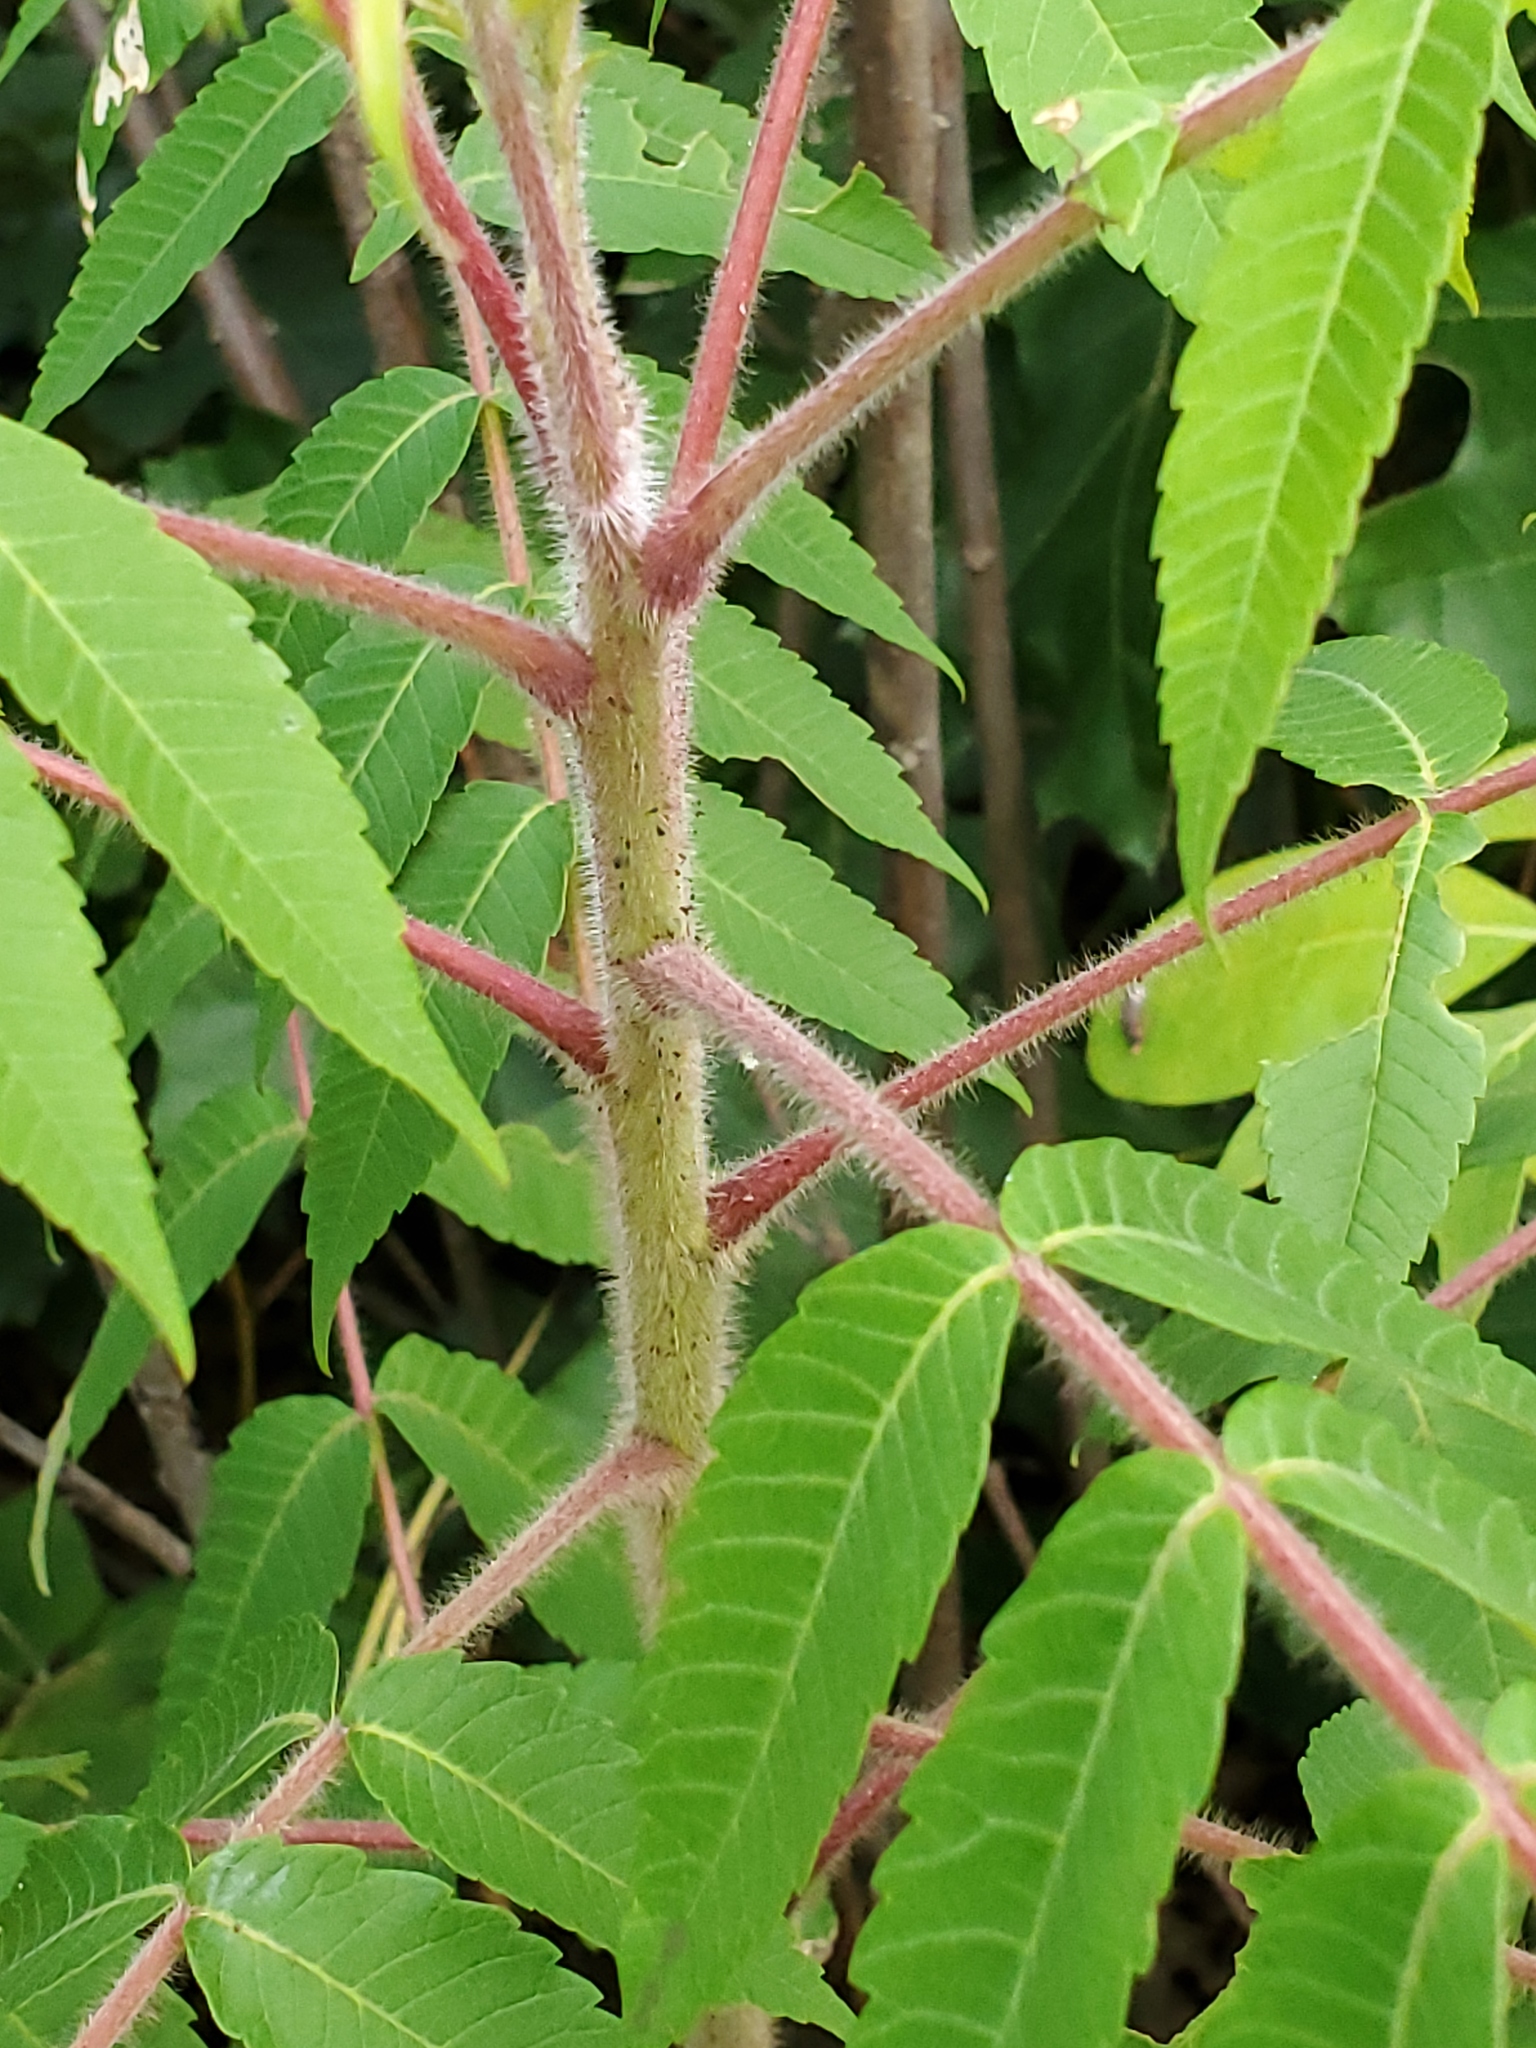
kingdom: Plantae
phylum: Tracheophyta
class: Magnoliopsida
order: Sapindales
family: Anacardiaceae
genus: Rhus
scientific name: Rhus typhina
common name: Staghorn sumac
